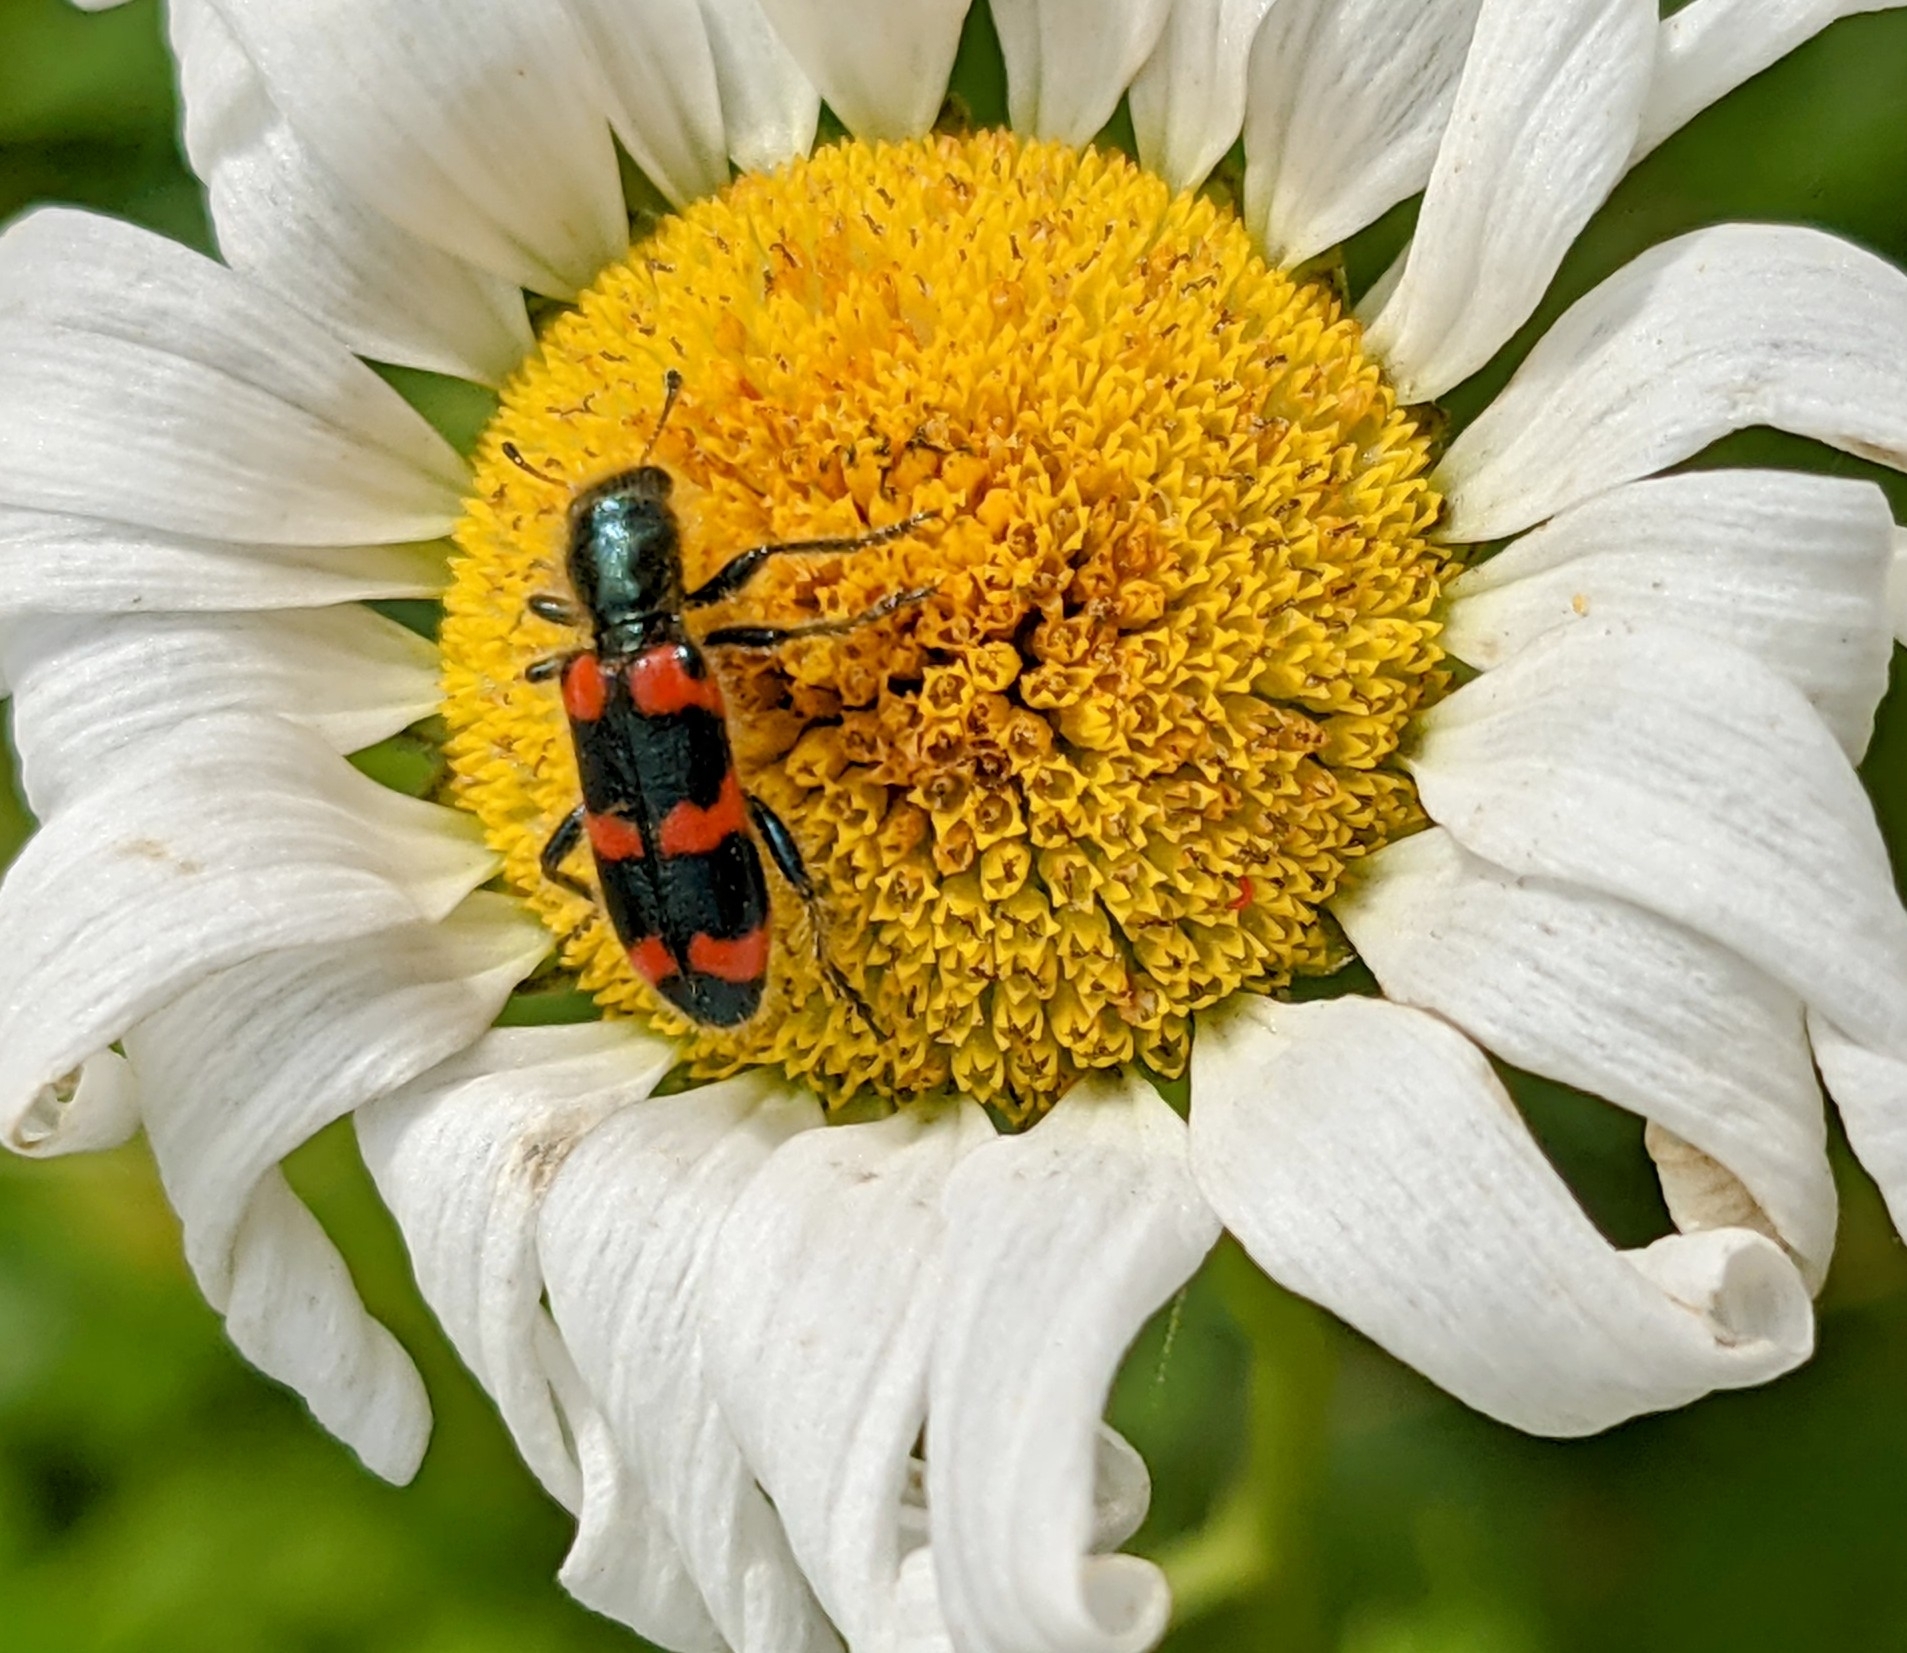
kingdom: Animalia
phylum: Arthropoda
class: Insecta
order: Coleoptera
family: Cleridae
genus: Trichodes
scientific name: Trichodes nutalli
